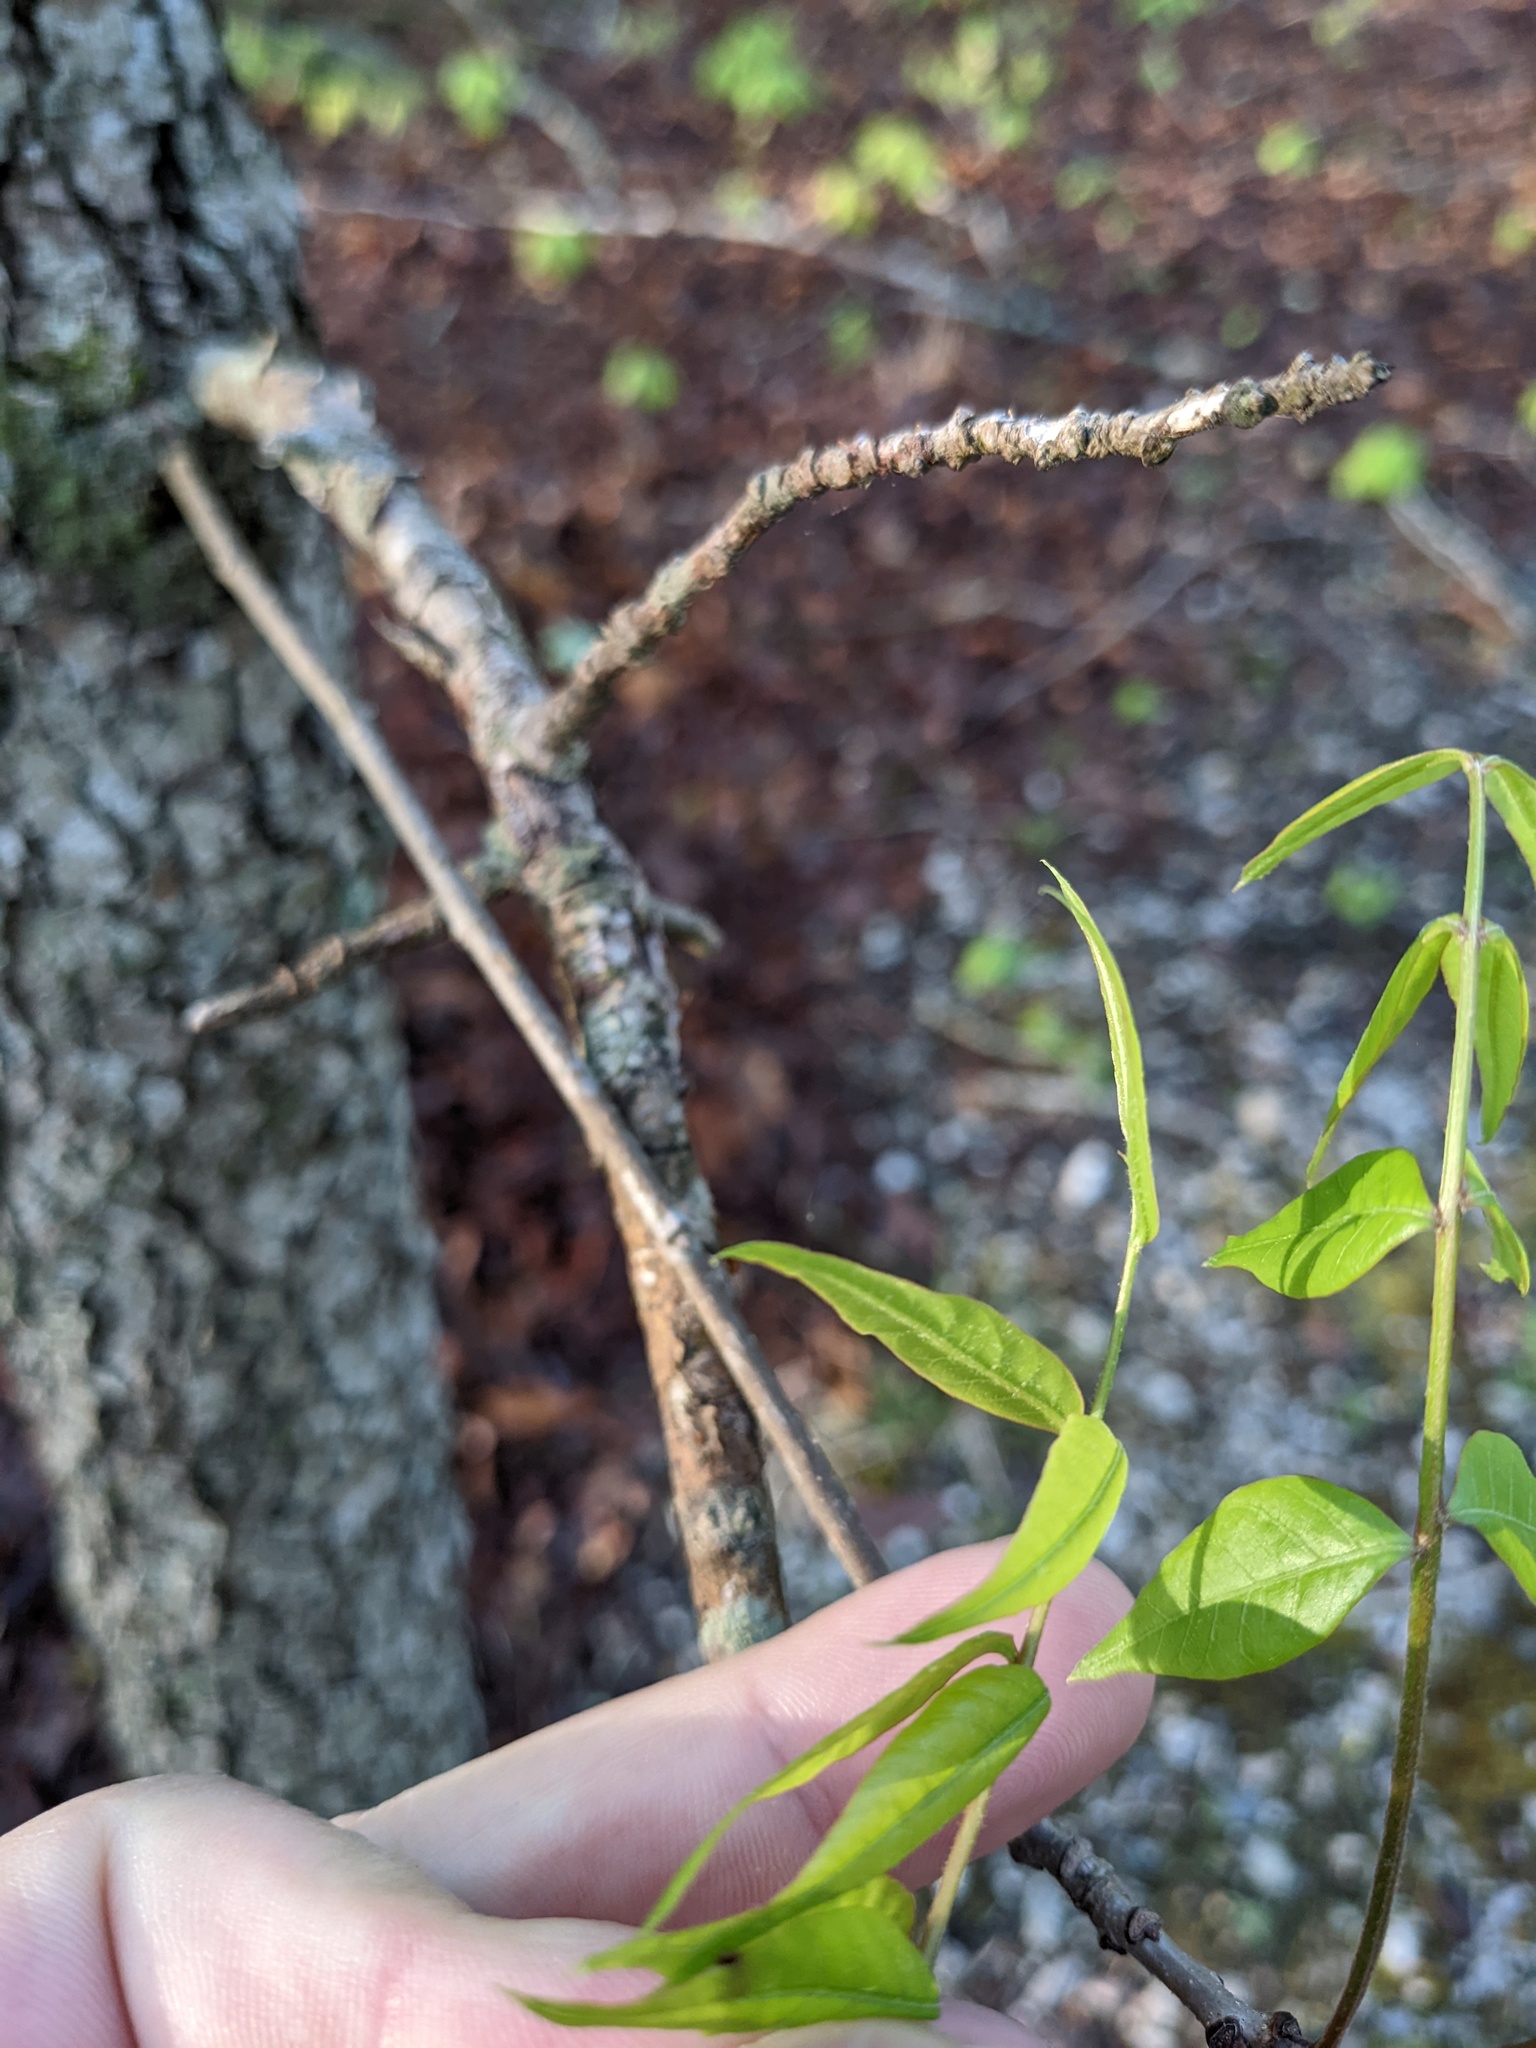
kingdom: Plantae
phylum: Tracheophyta
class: Magnoliopsida
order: Sapindales
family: Anacardiaceae
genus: Pistacia
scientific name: Pistacia chinensis
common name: Chinese pistache
